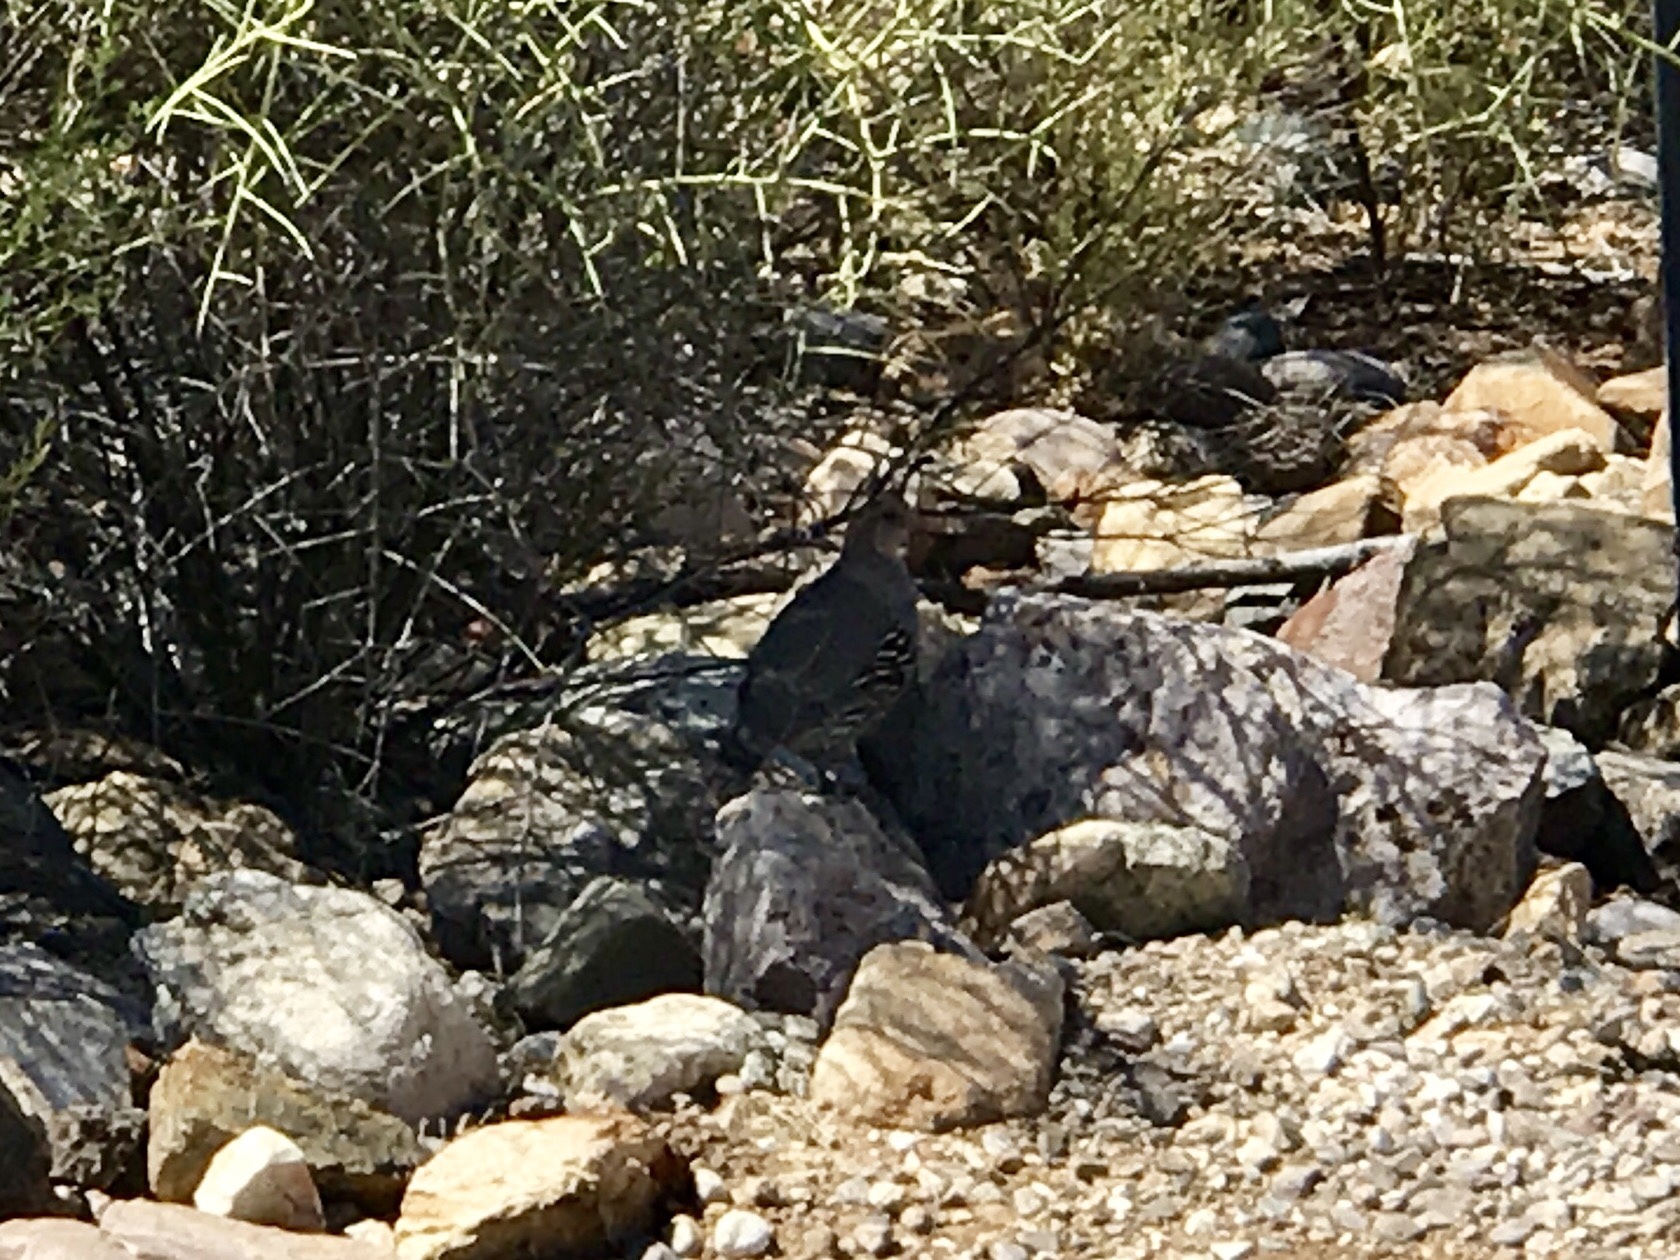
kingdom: Animalia
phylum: Chordata
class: Aves
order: Galliformes
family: Odontophoridae
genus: Callipepla
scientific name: Callipepla gambelii
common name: Gambel's quail
